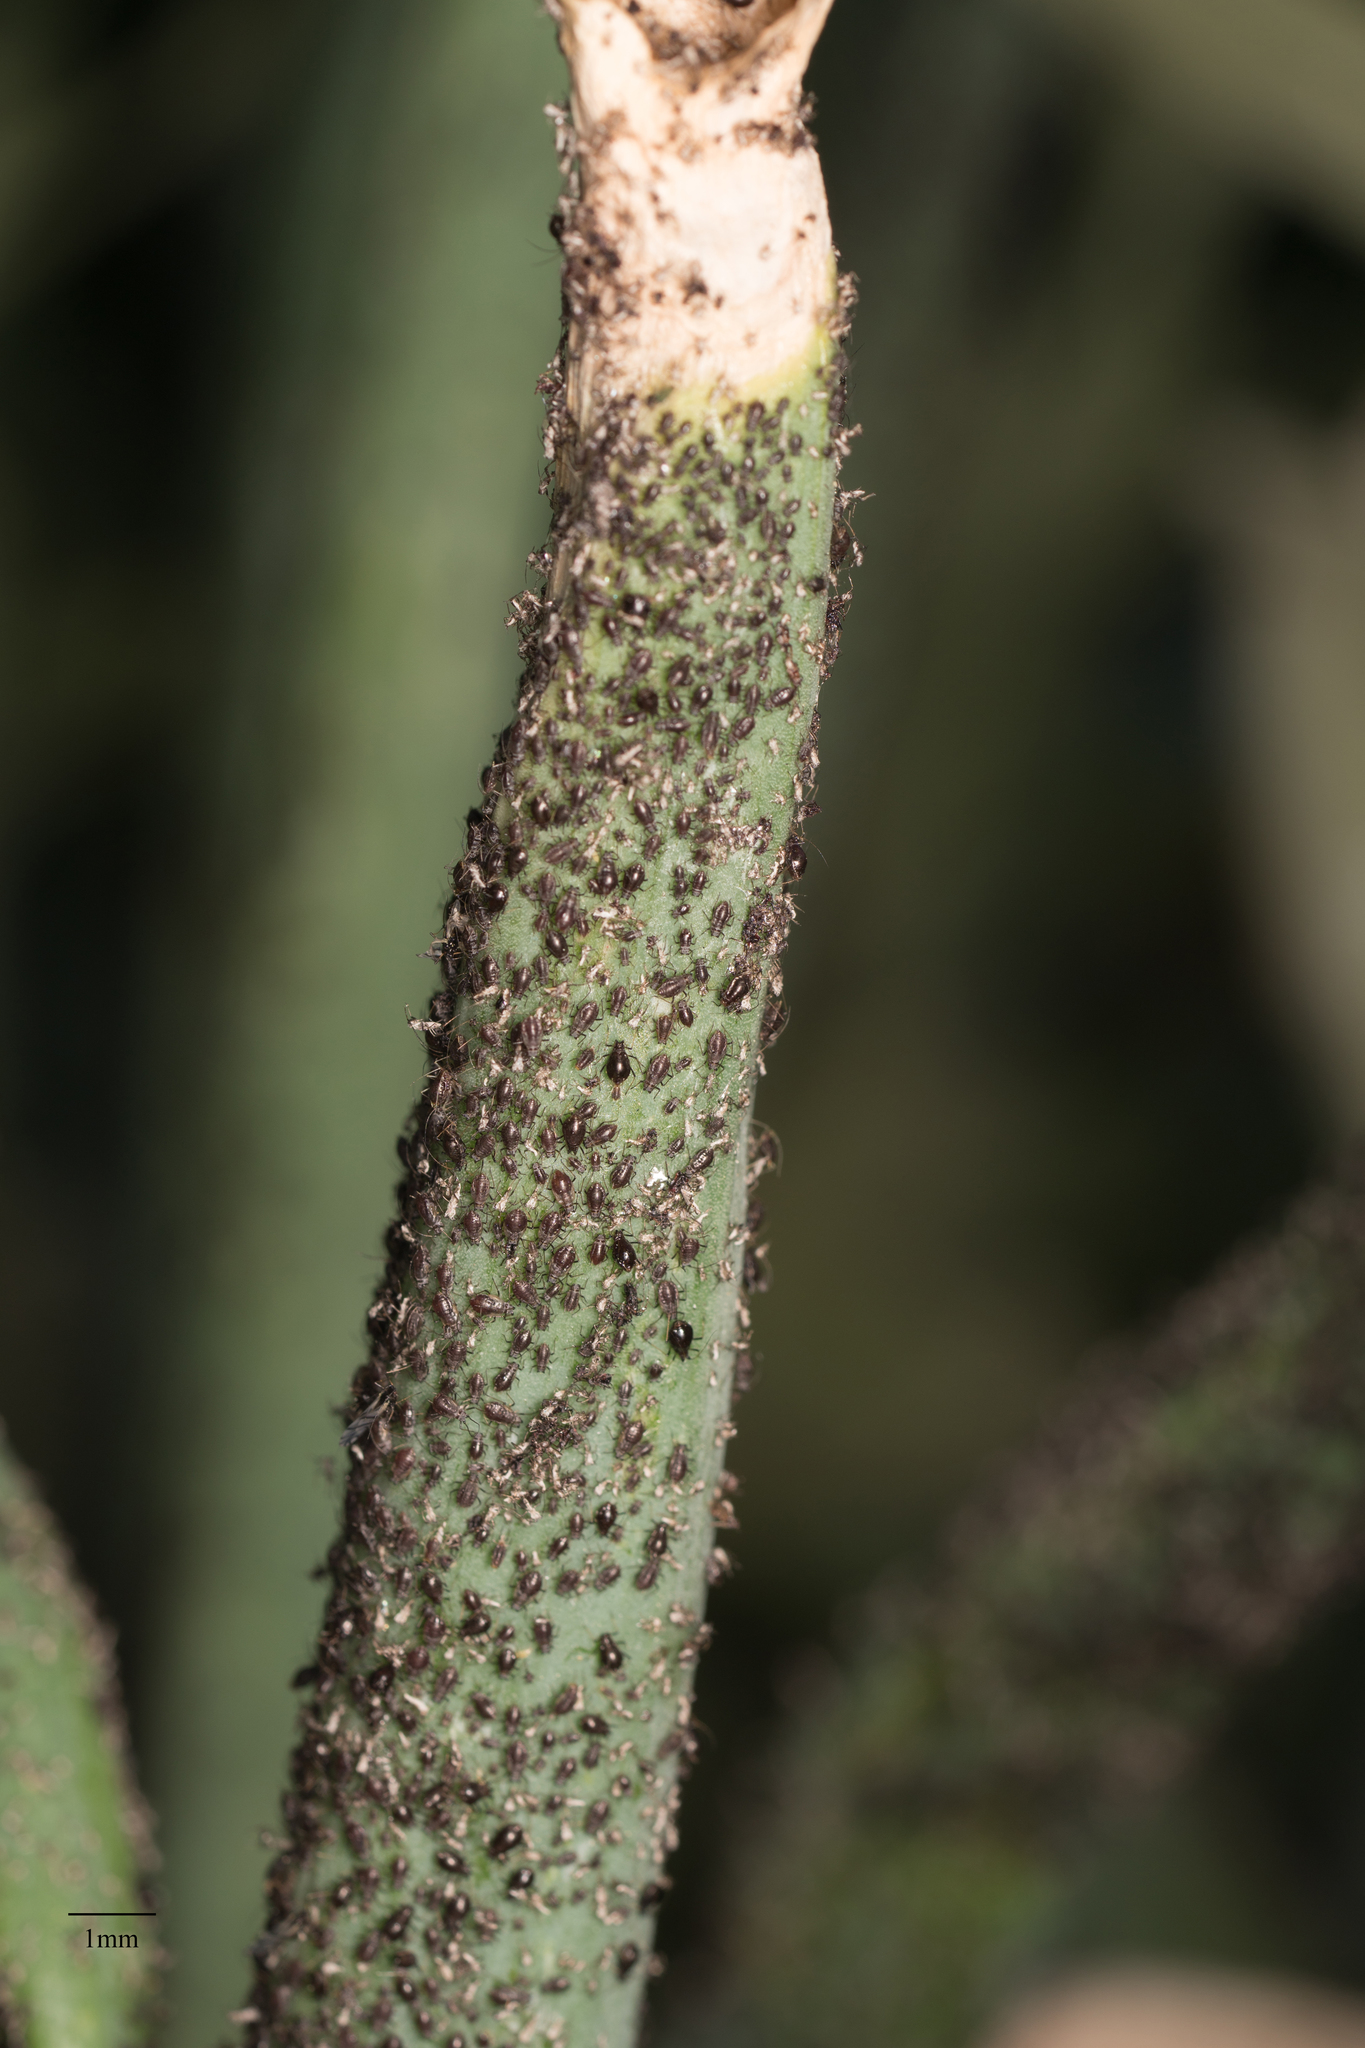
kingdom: Animalia
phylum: Arthropoda
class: Insecta
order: Hemiptera
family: Aphididae
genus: Neotoxoptera
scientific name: Neotoxoptera formosana
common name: Onion aphid
